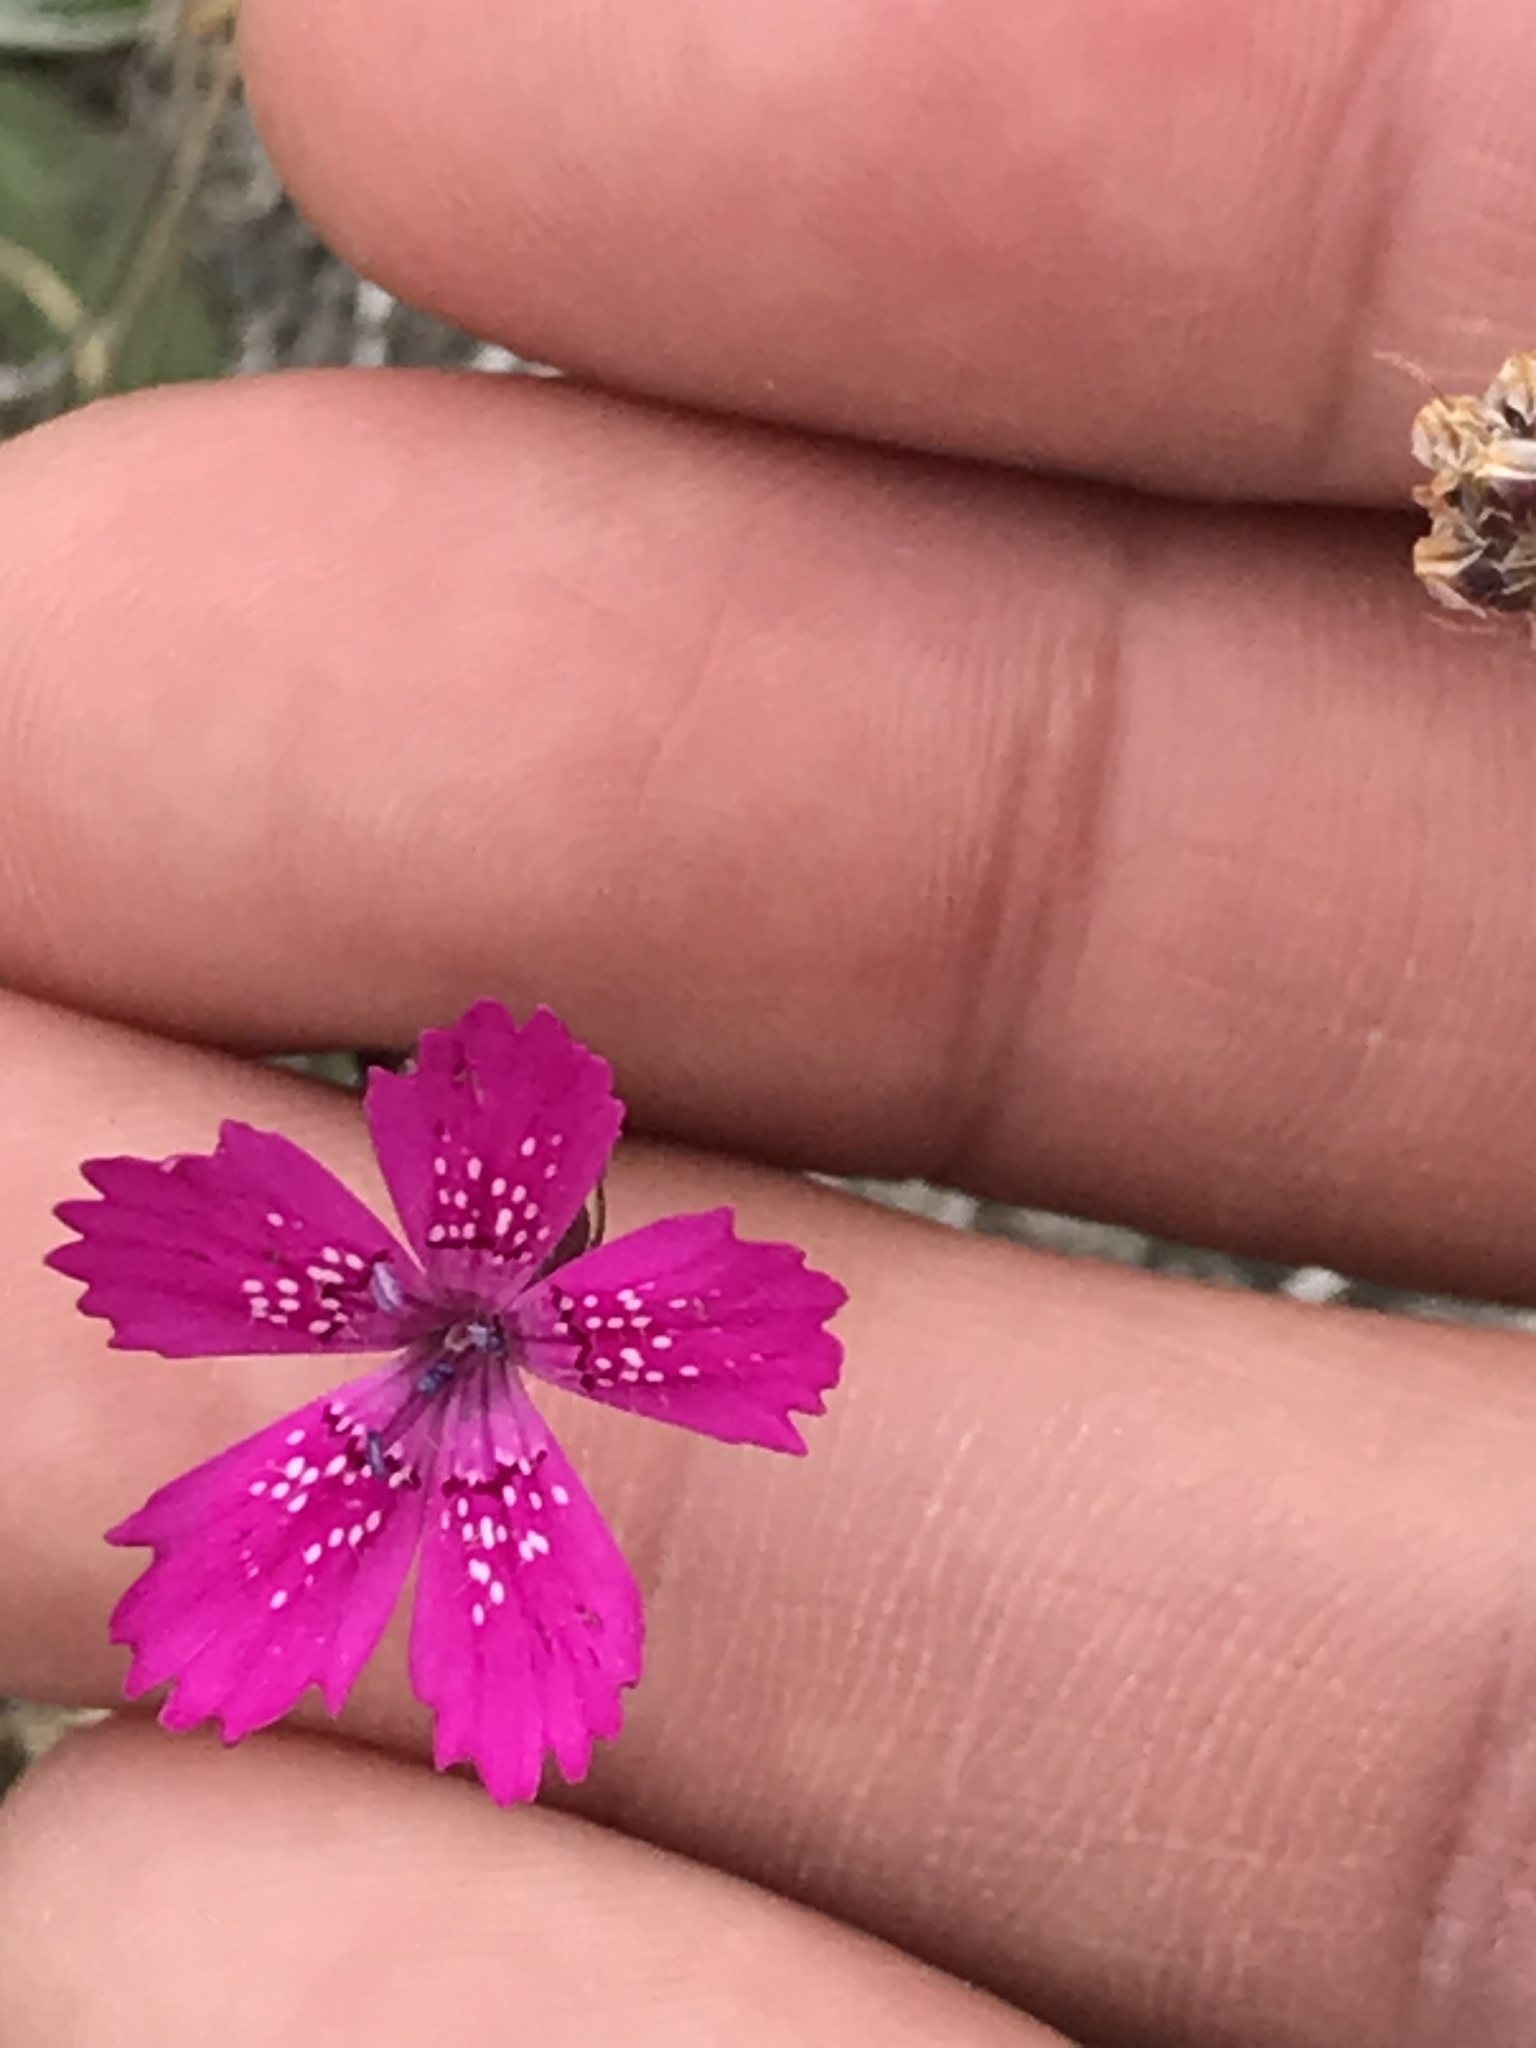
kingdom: Plantae
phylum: Tracheophyta
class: Magnoliopsida
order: Caryophyllales
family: Caryophyllaceae
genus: Dianthus
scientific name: Dianthus deltoides
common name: Maiden pink
